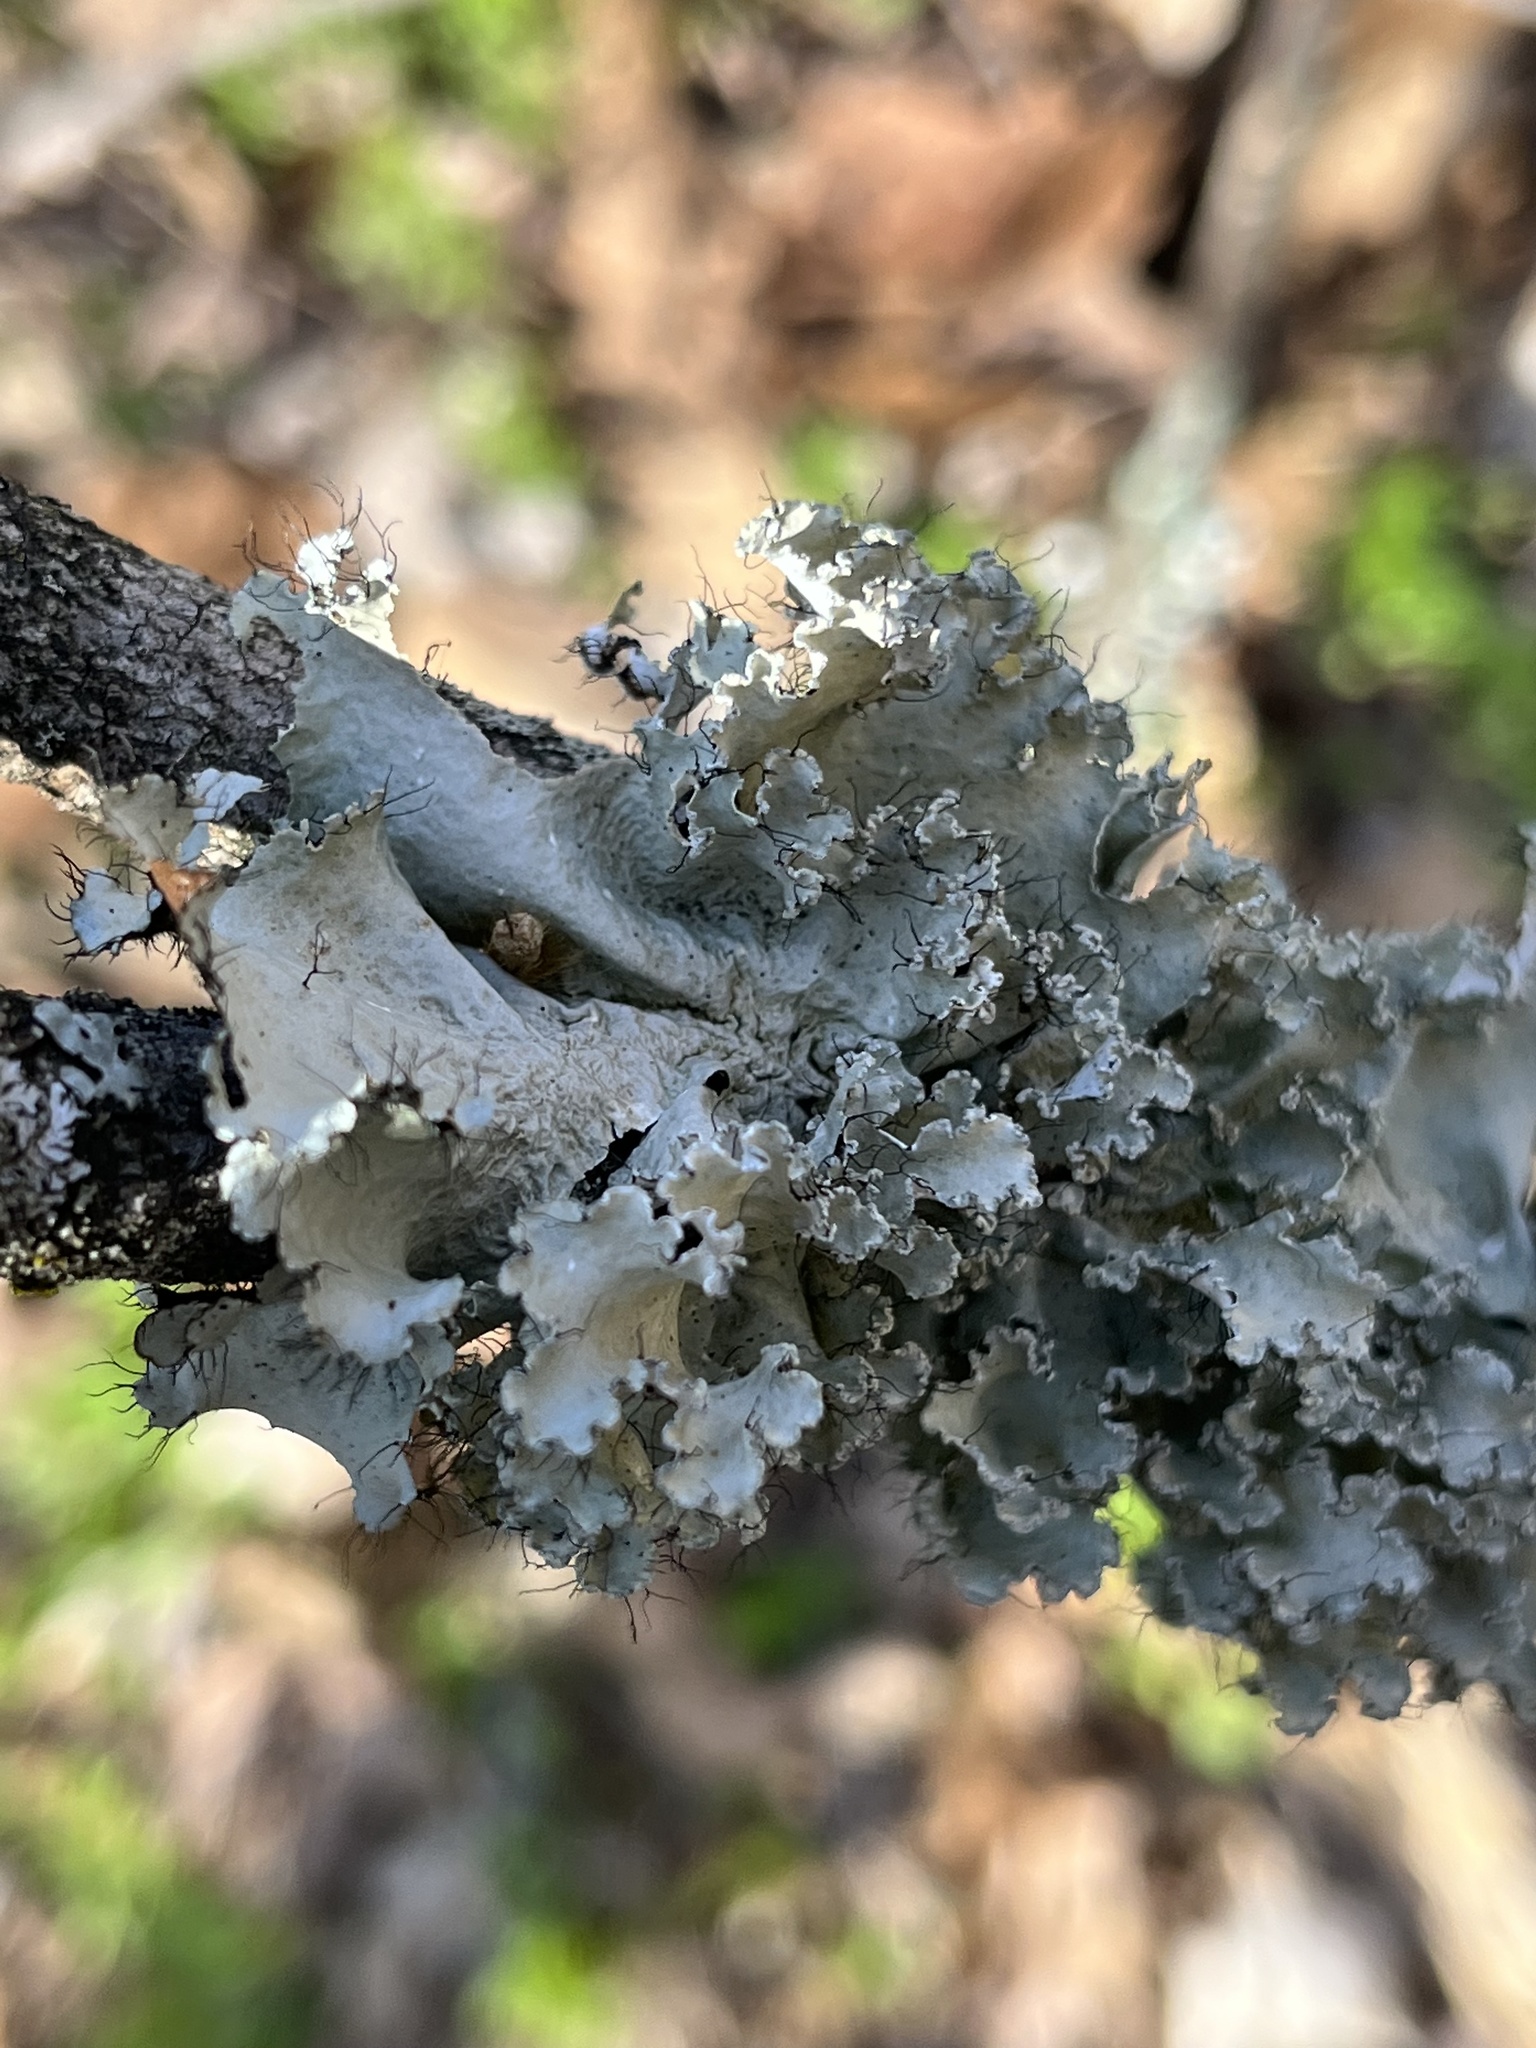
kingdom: Fungi
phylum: Ascomycota
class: Lecanoromycetes
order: Lecanorales
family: Parmeliaceae
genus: Parmotrema
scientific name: Parmotrema hypotropum
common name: Powdered ruffle lichen
